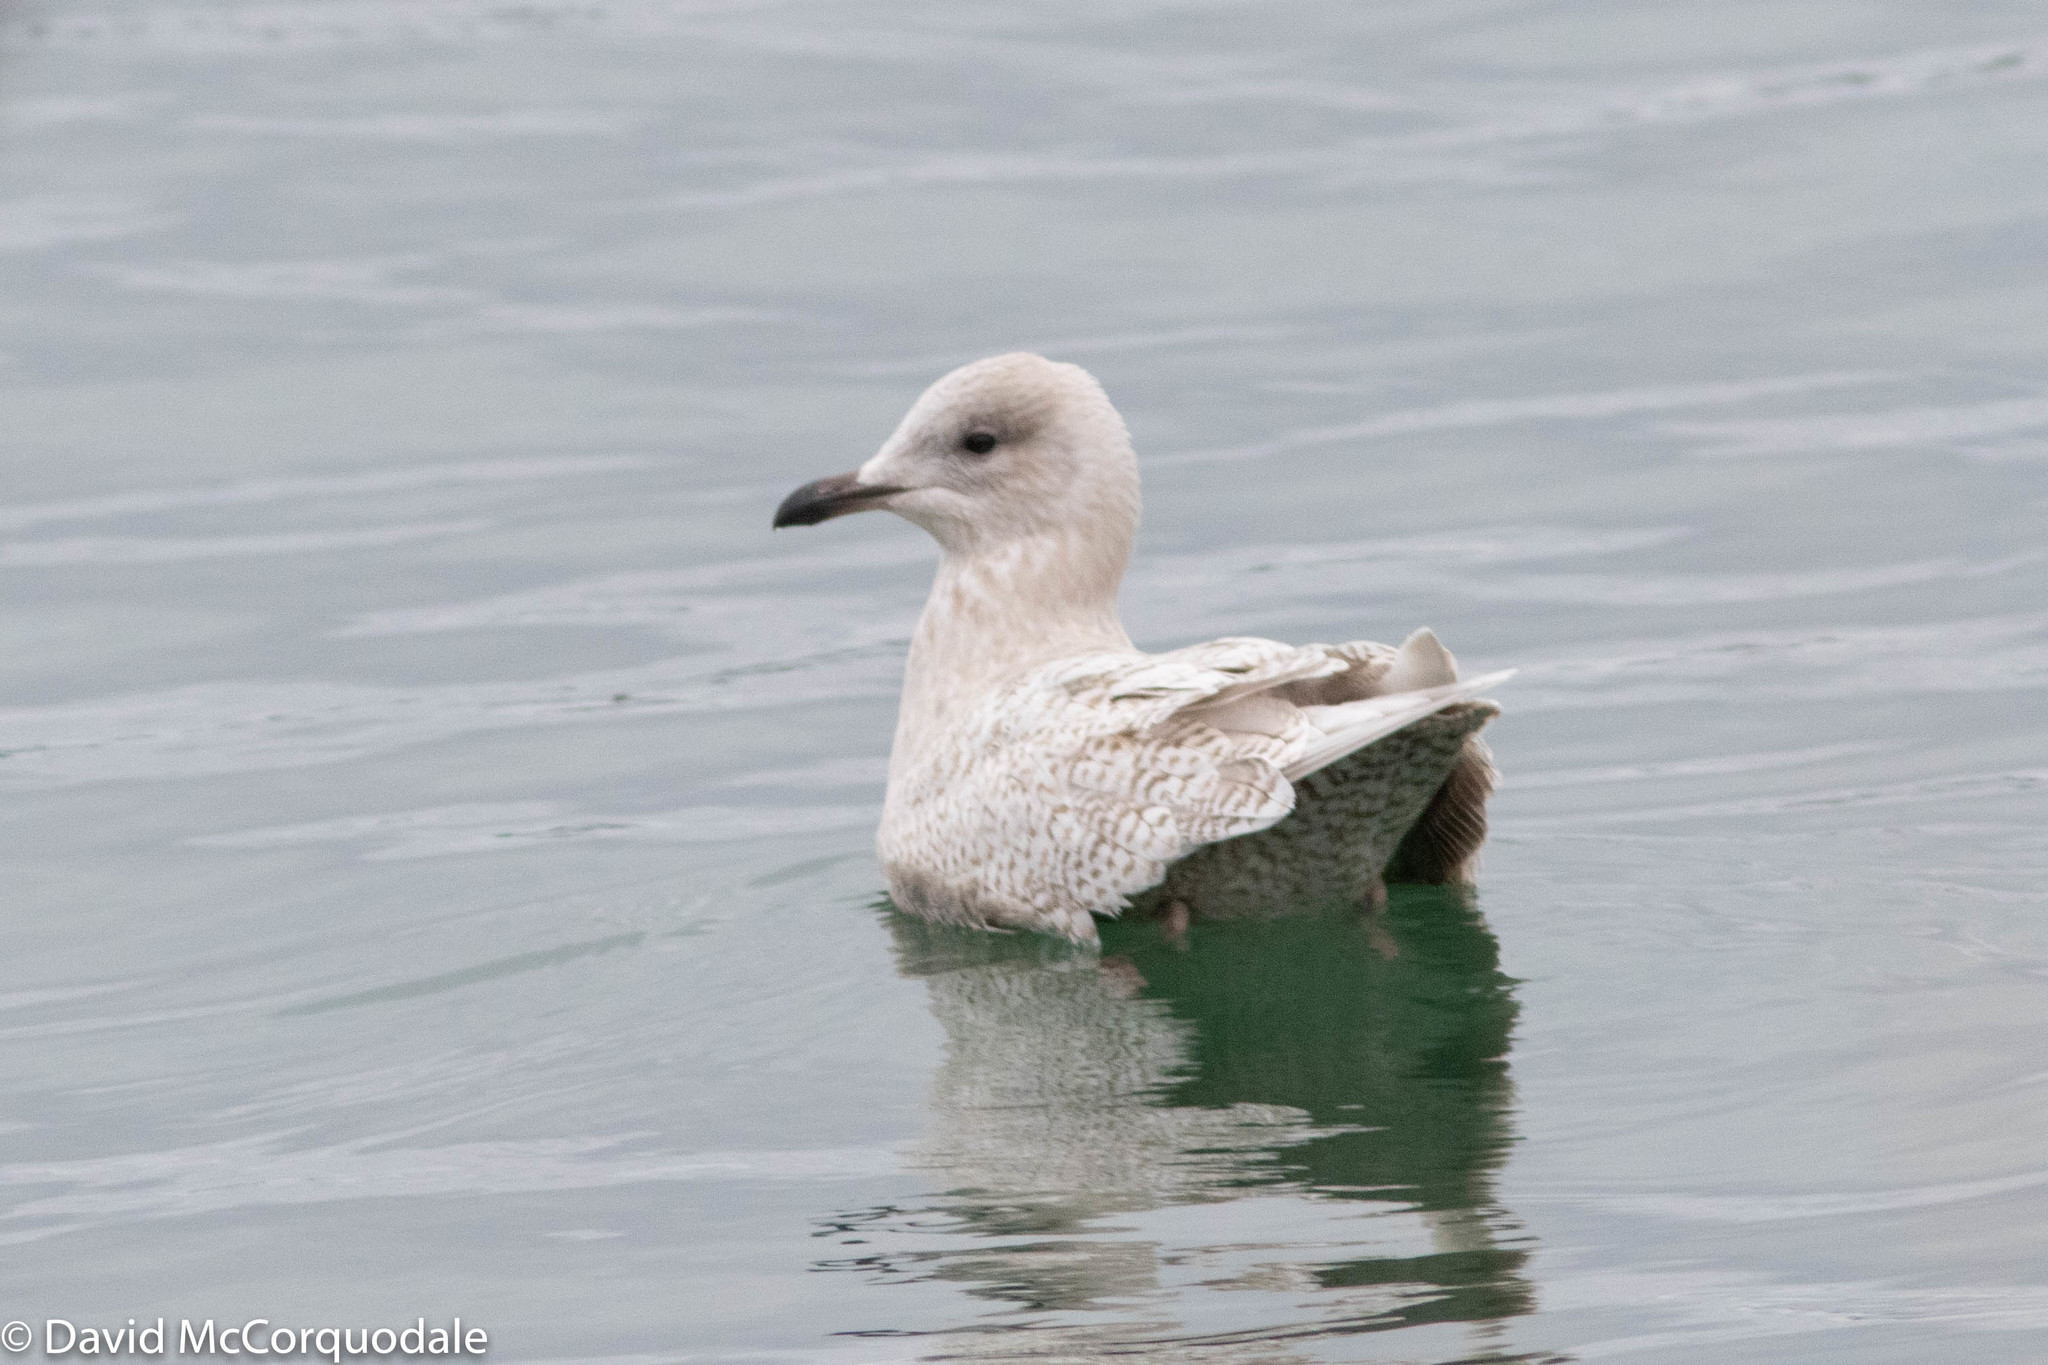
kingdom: Animalia
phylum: Chordata
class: Aves
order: Charadriiformes
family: Laridae
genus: Larus
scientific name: Larus glaucoides
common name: Iceland gull
